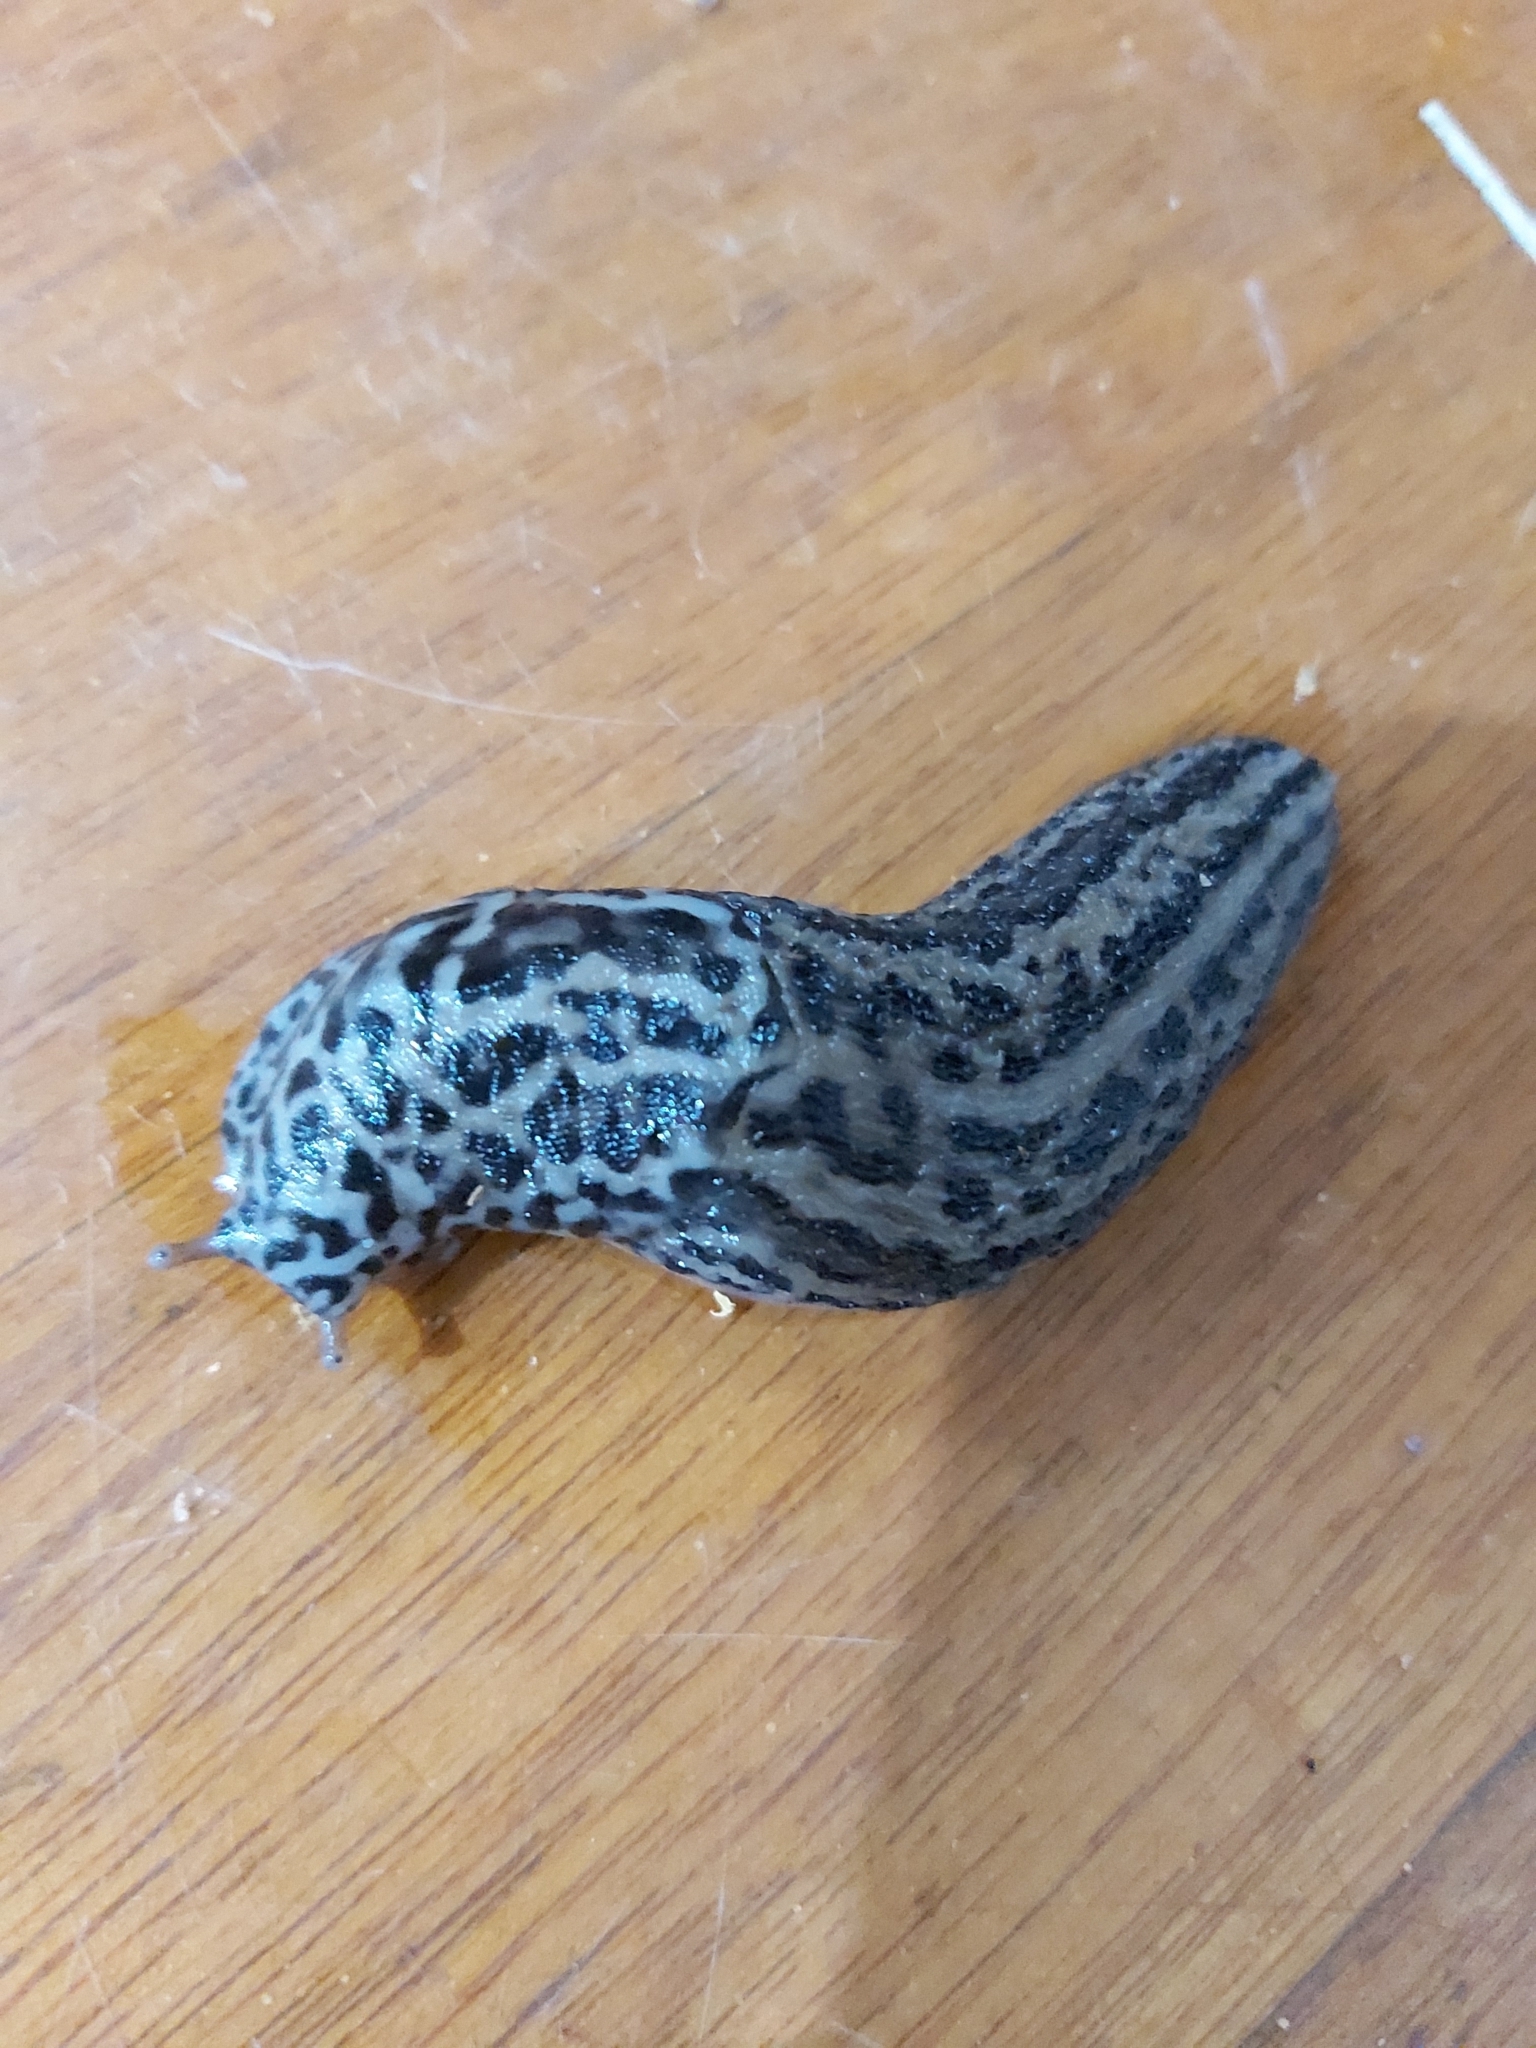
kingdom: Animalia
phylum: Mollusca
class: Gastropoda
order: Stylommatophora
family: Limacidae
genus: Limax
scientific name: Limax maximus
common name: Great grey slug
